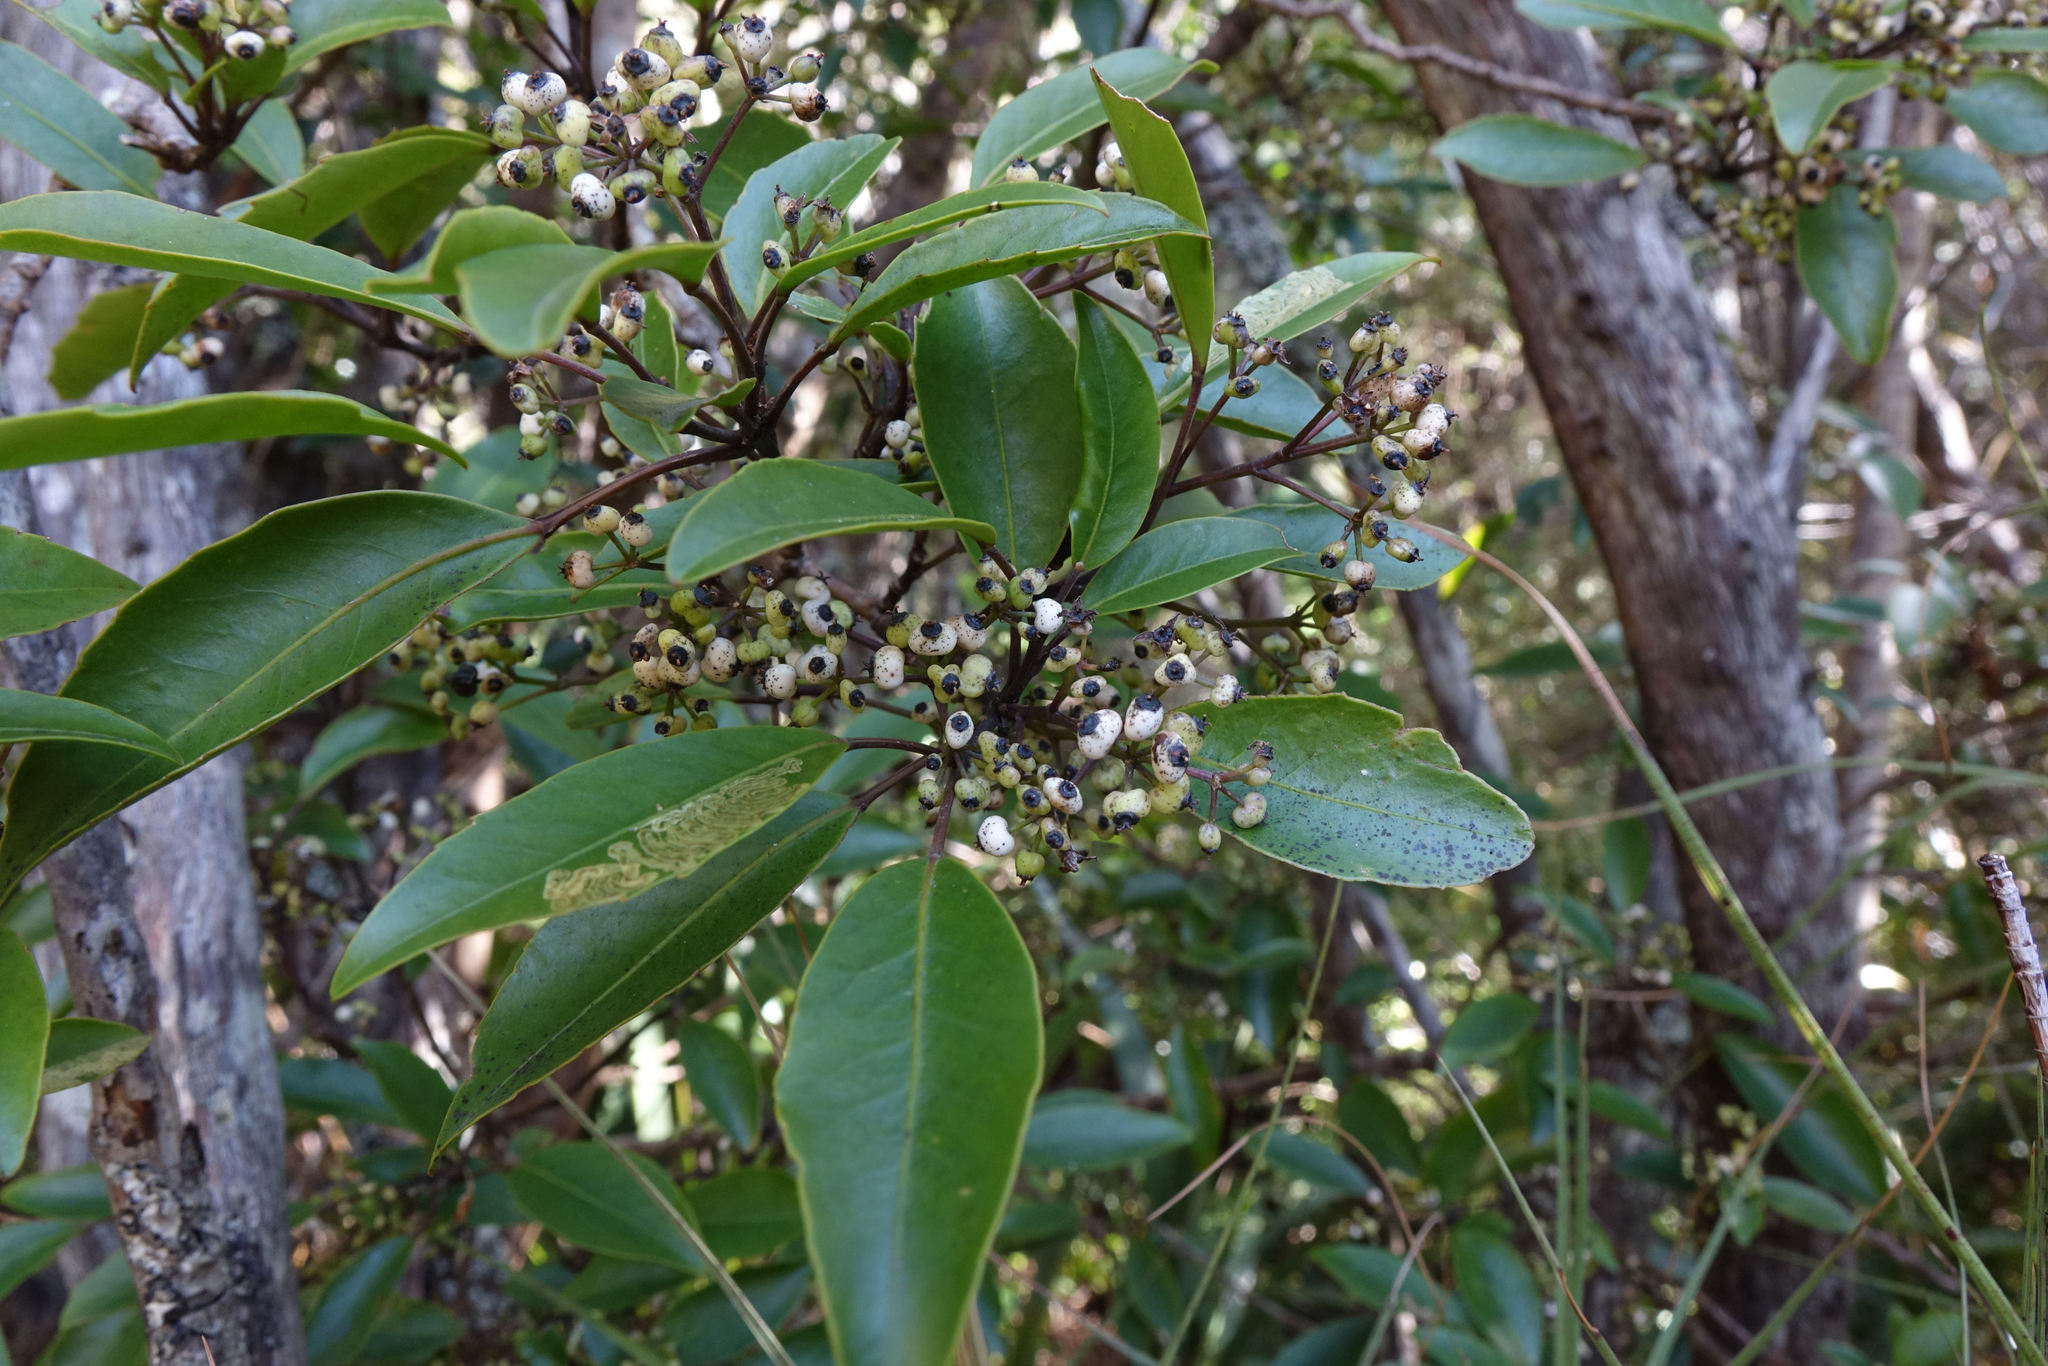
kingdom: Plantae
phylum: Tracheophyta
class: Magnoliopsida
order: Apiales
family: Araliaceae
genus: Raukaua
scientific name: Raukaua simplex
